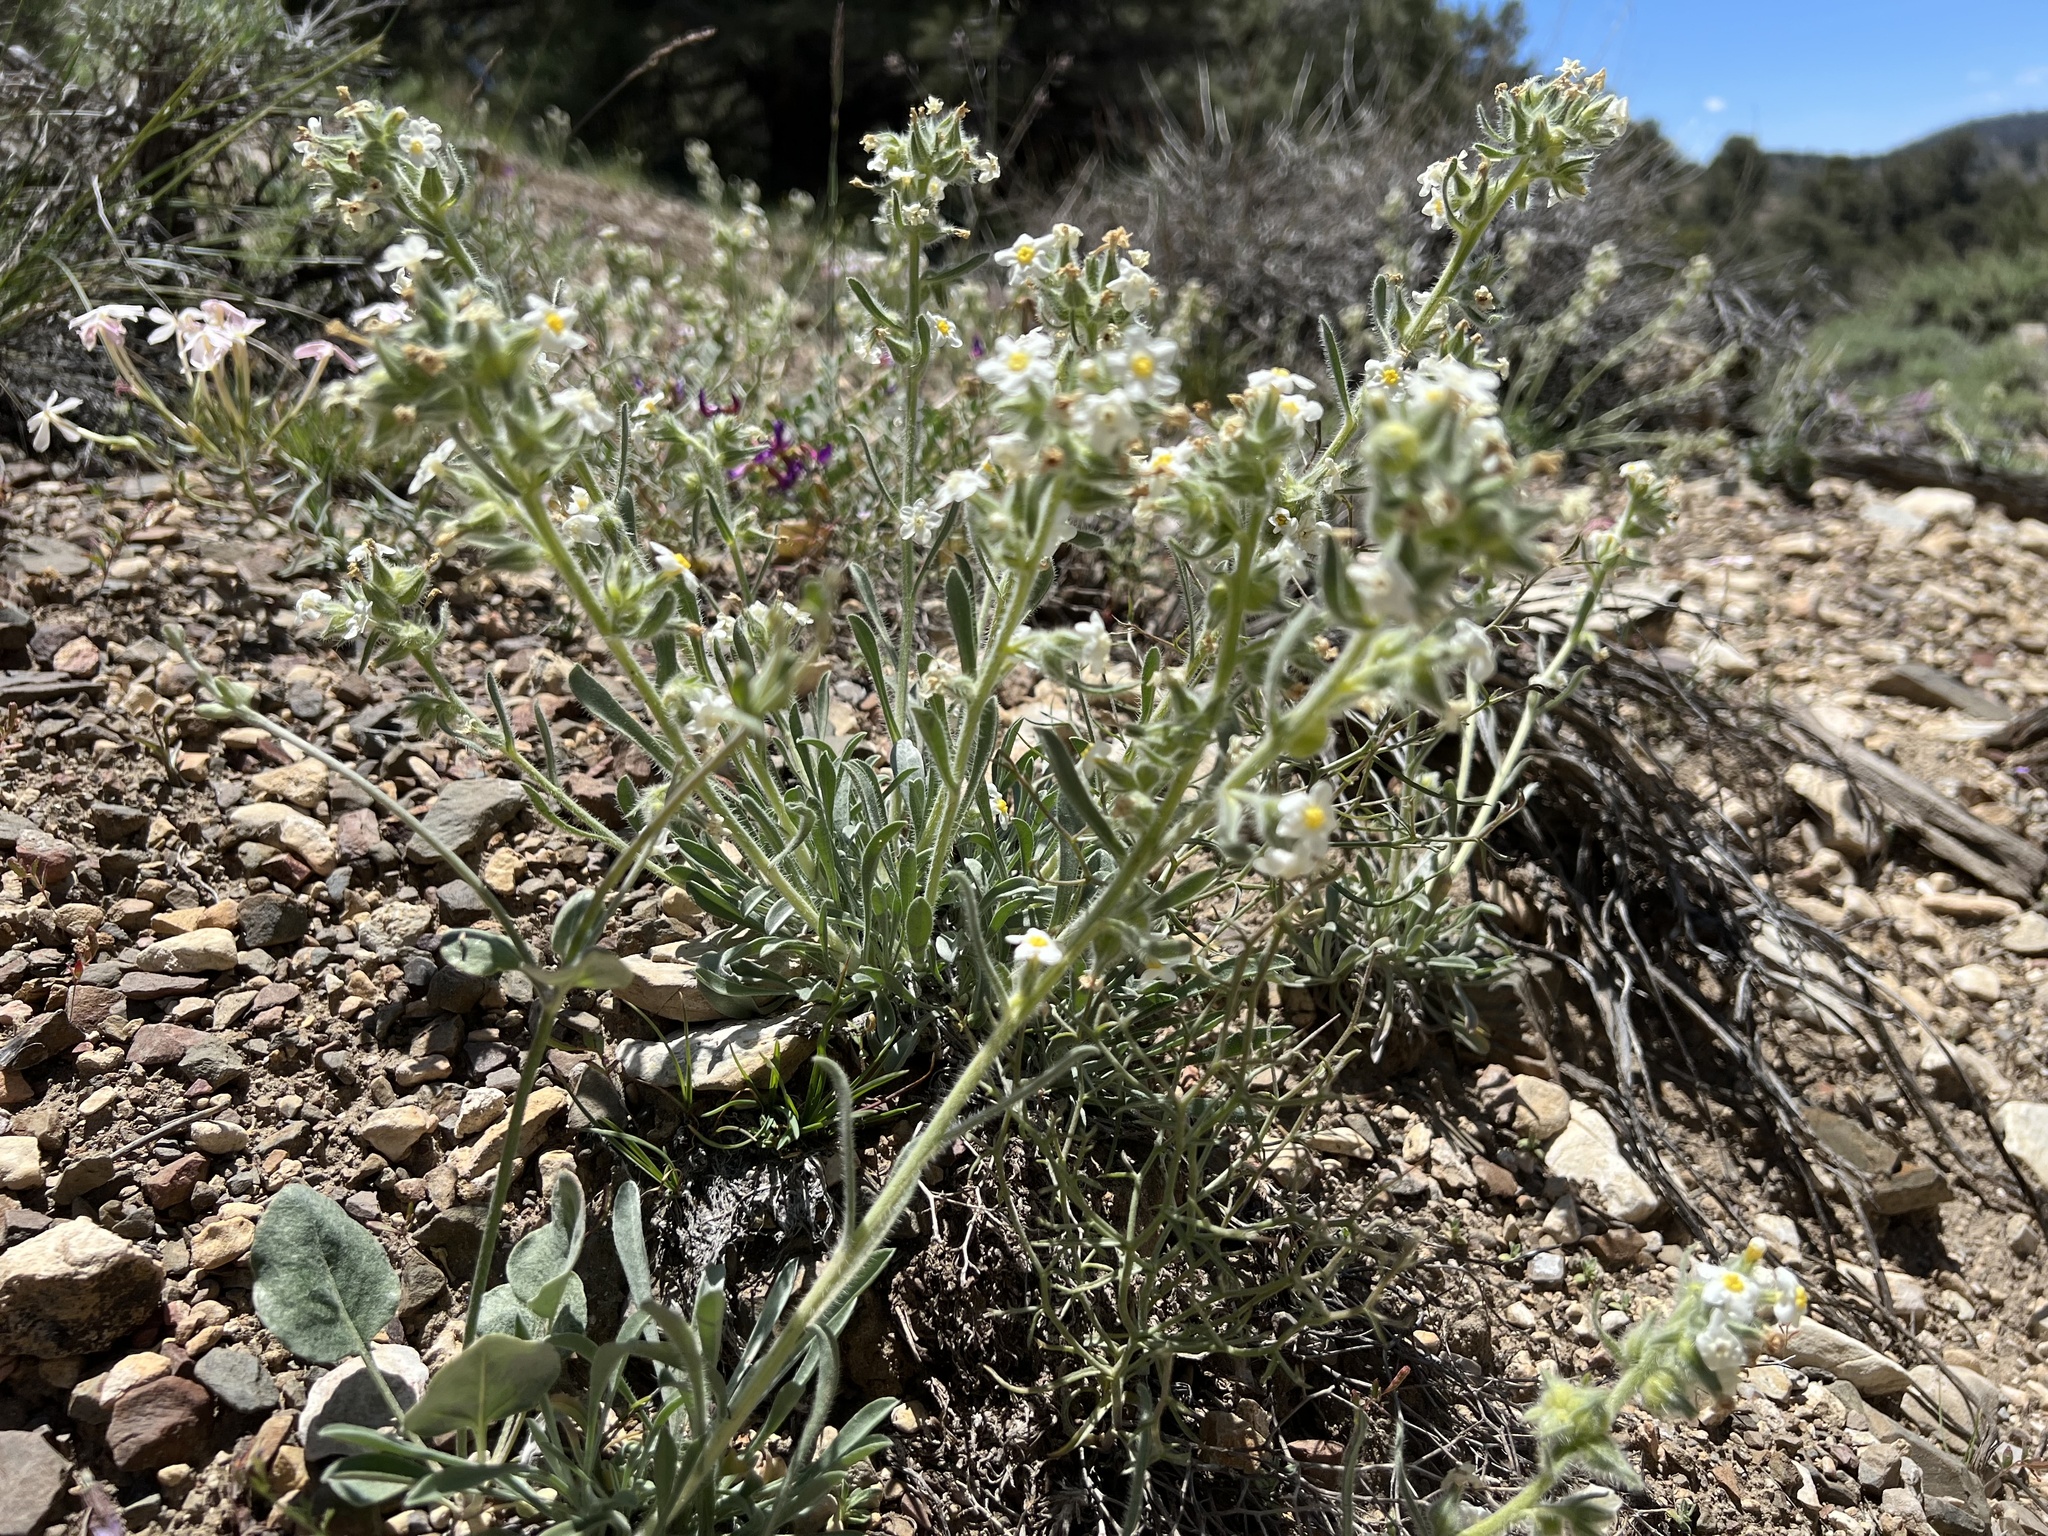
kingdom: Plantae
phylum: Tracheophyta
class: Magnoliopsida
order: Boraginales
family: Boraginaceae
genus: Oreocarya
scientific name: Oreocarya flavoculata
